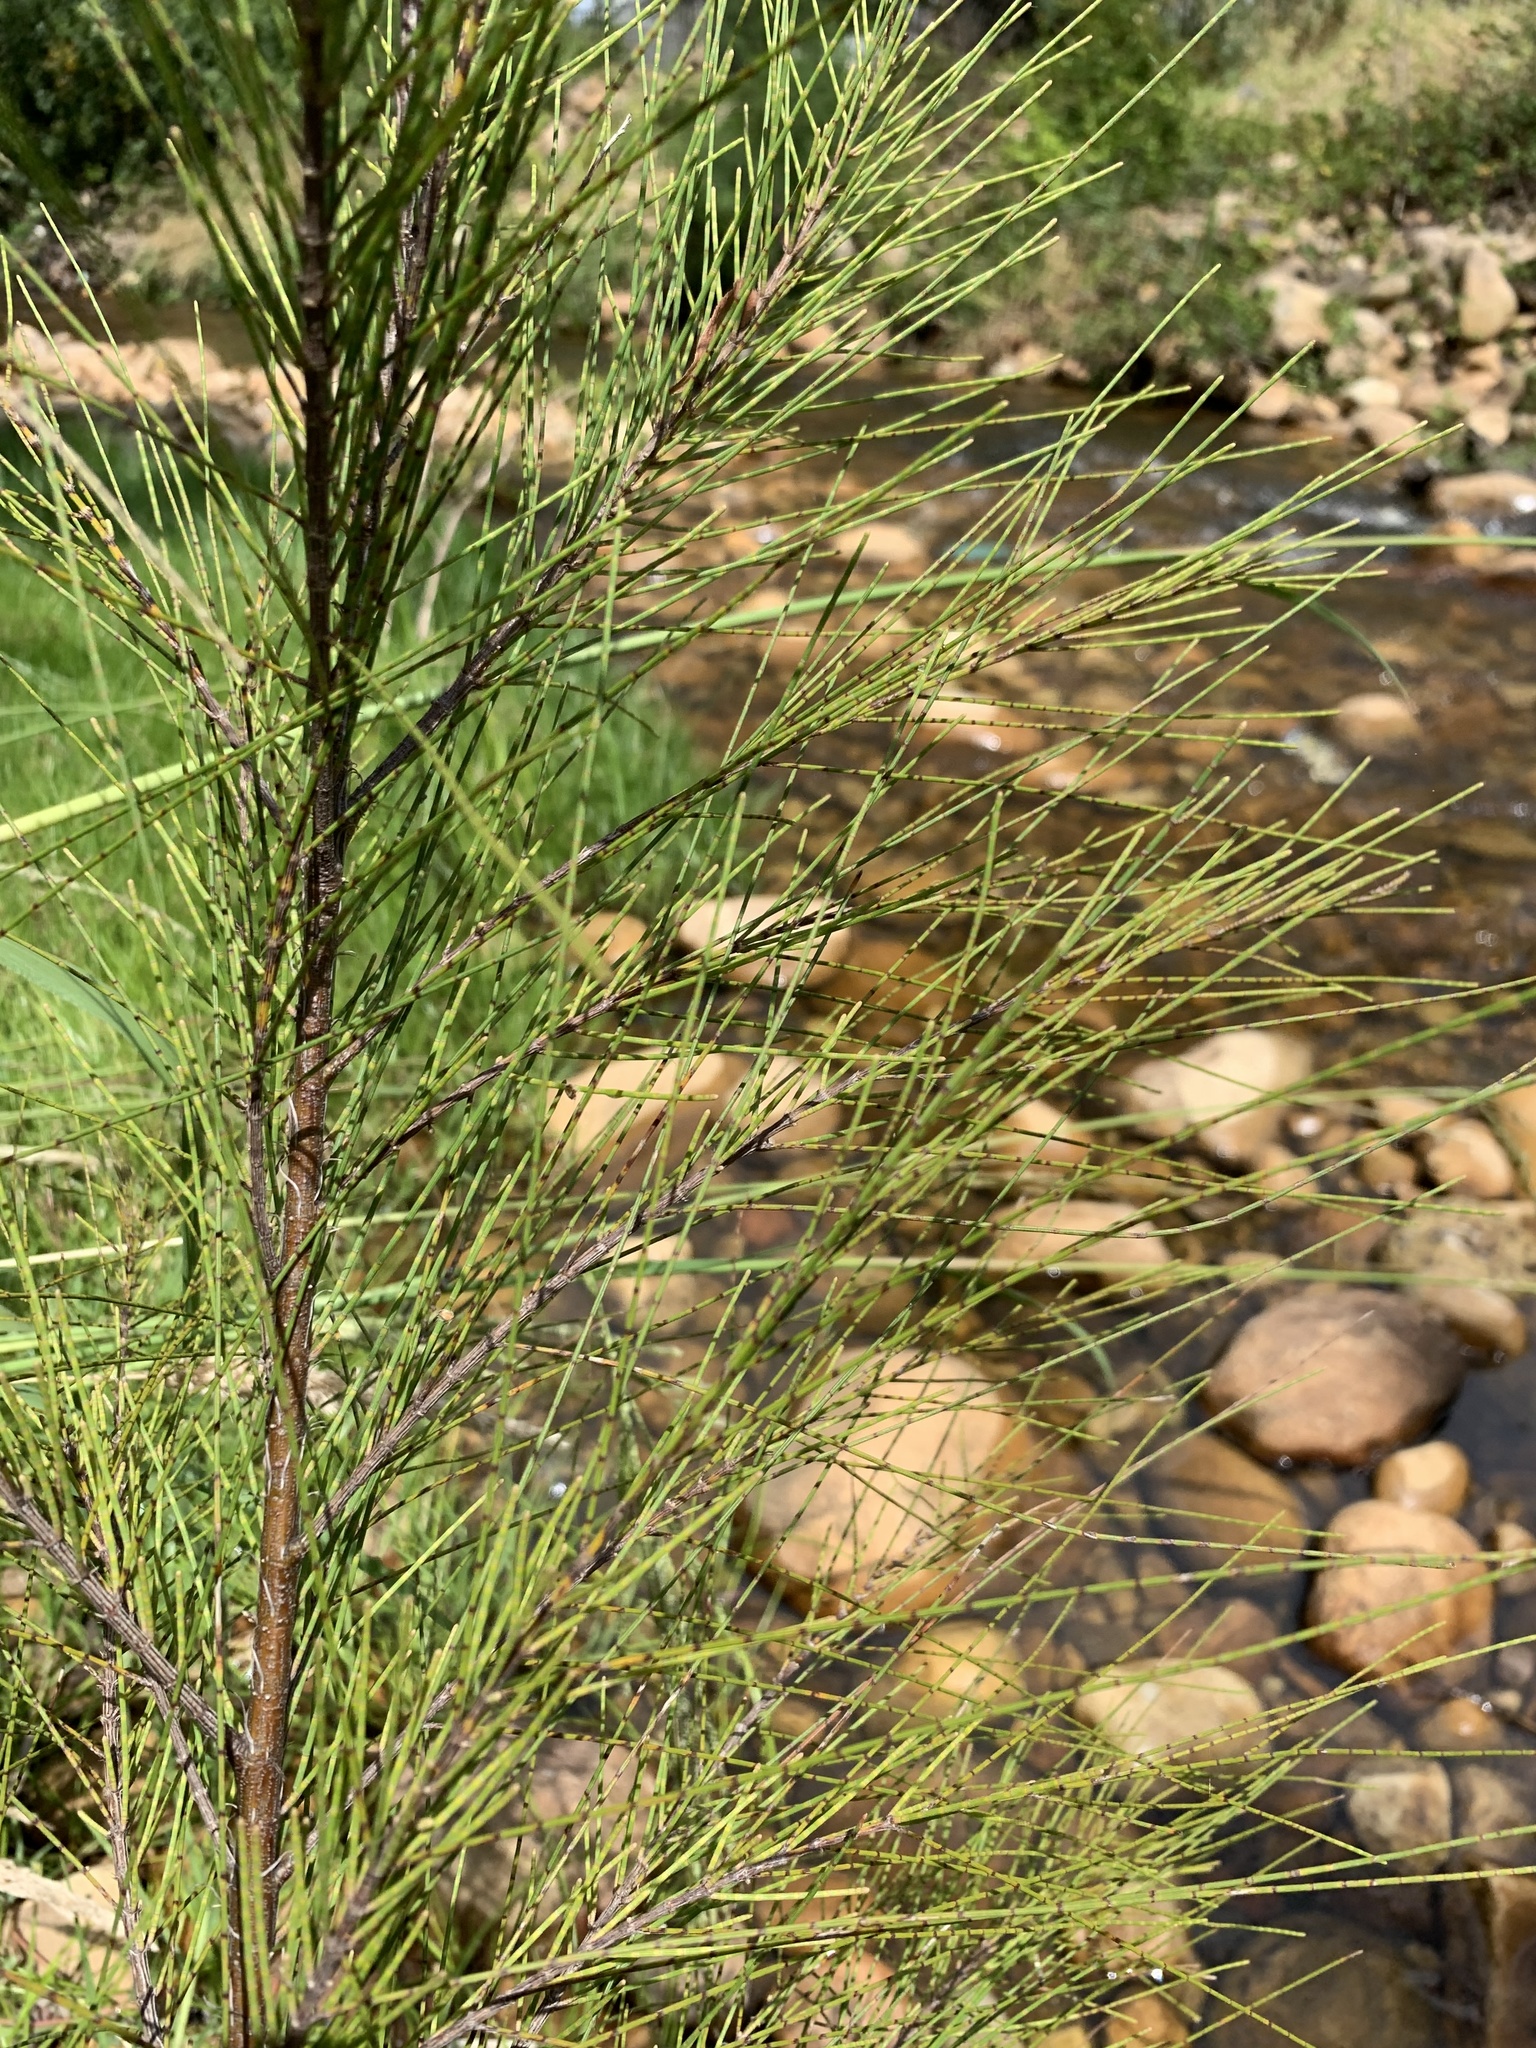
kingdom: Plantae
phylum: Tracheophyta
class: Magnoliopsida
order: Fagales
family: Casuarinaceae
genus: Casuarina
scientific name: Casuarina cunninghamiana
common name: River sheoak
